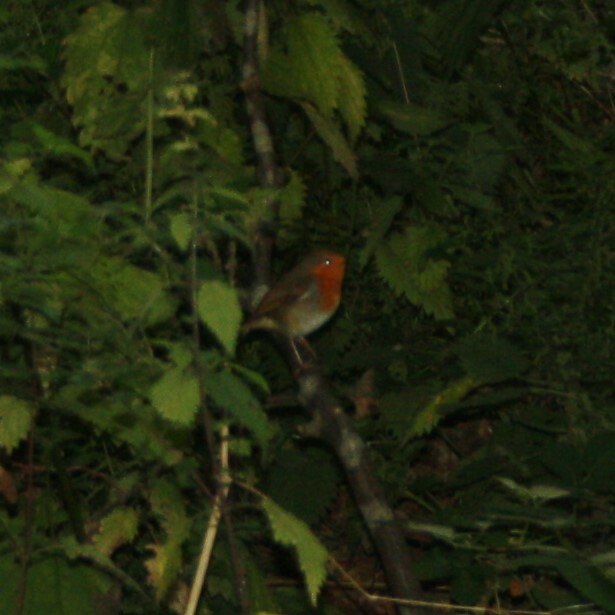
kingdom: Animalia
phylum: Chordata
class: Aves
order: Passeriformes
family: Muscicapidae
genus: Erithacus
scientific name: Erithacus rubecula
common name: European robin
